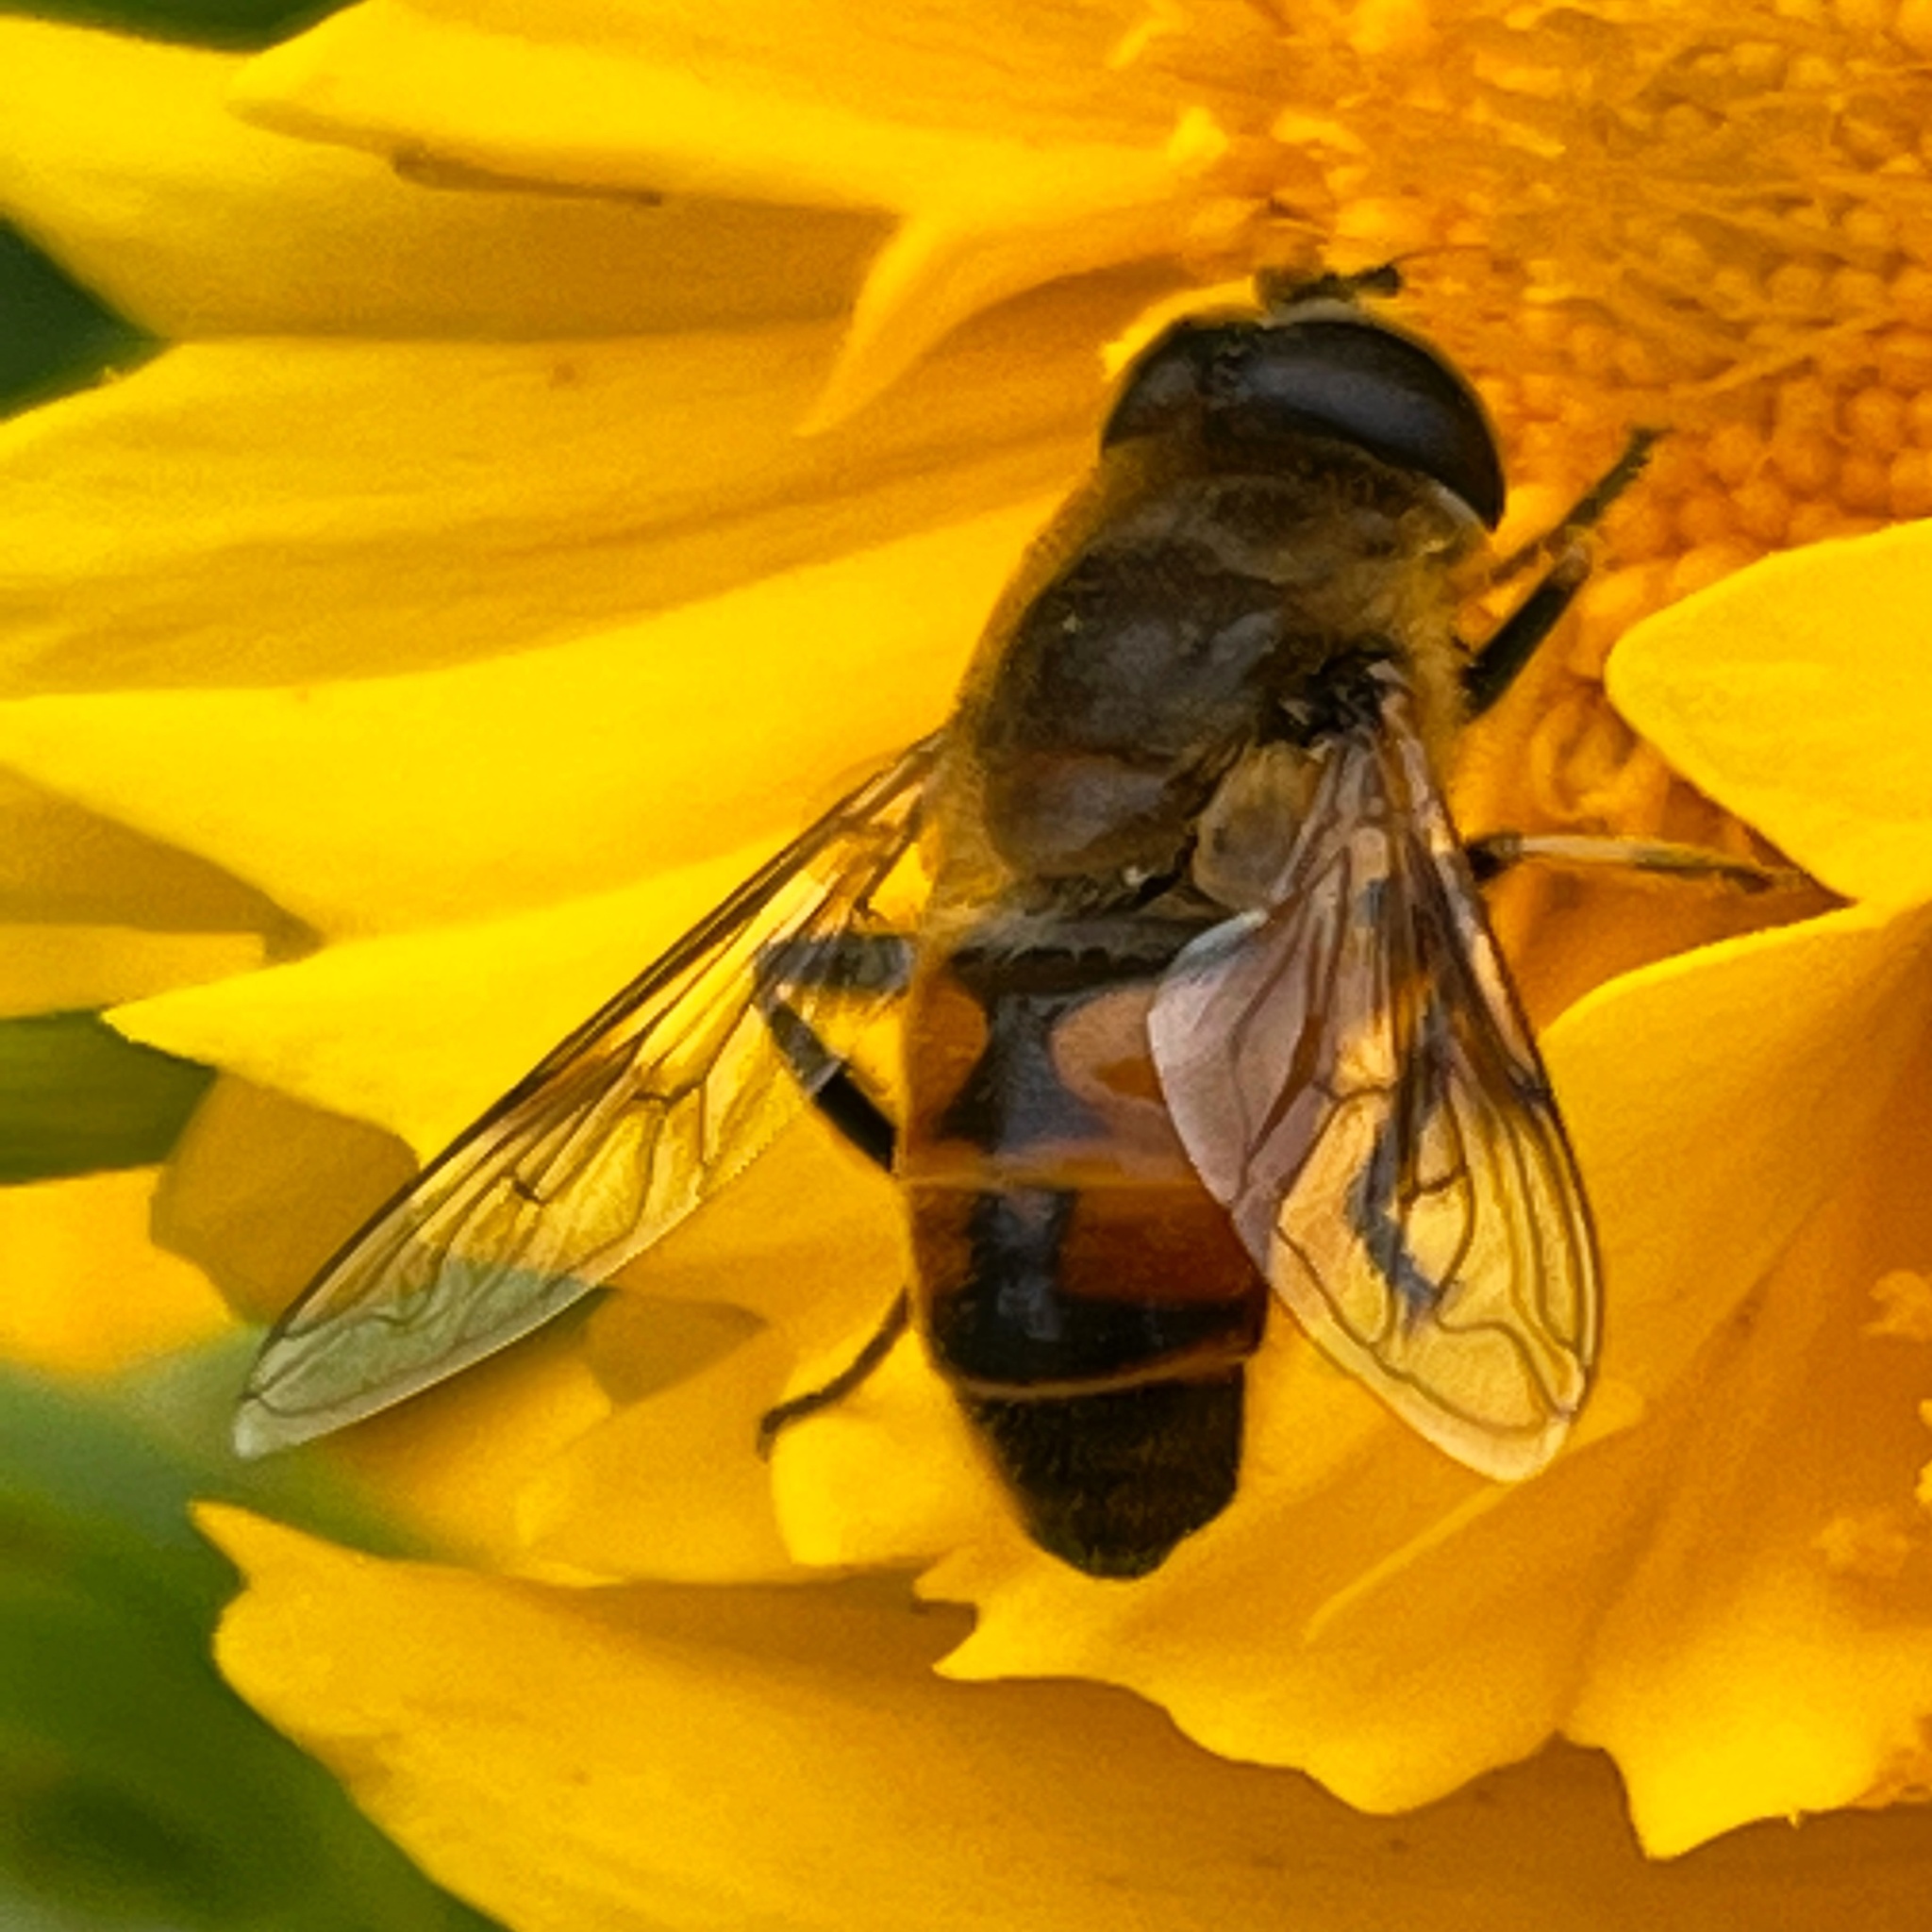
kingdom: Animalia
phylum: Arthropoda
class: Insecta
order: Diptera
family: Syrphidae
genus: Eristalis
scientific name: Eristalis tenax
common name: Drone fly
